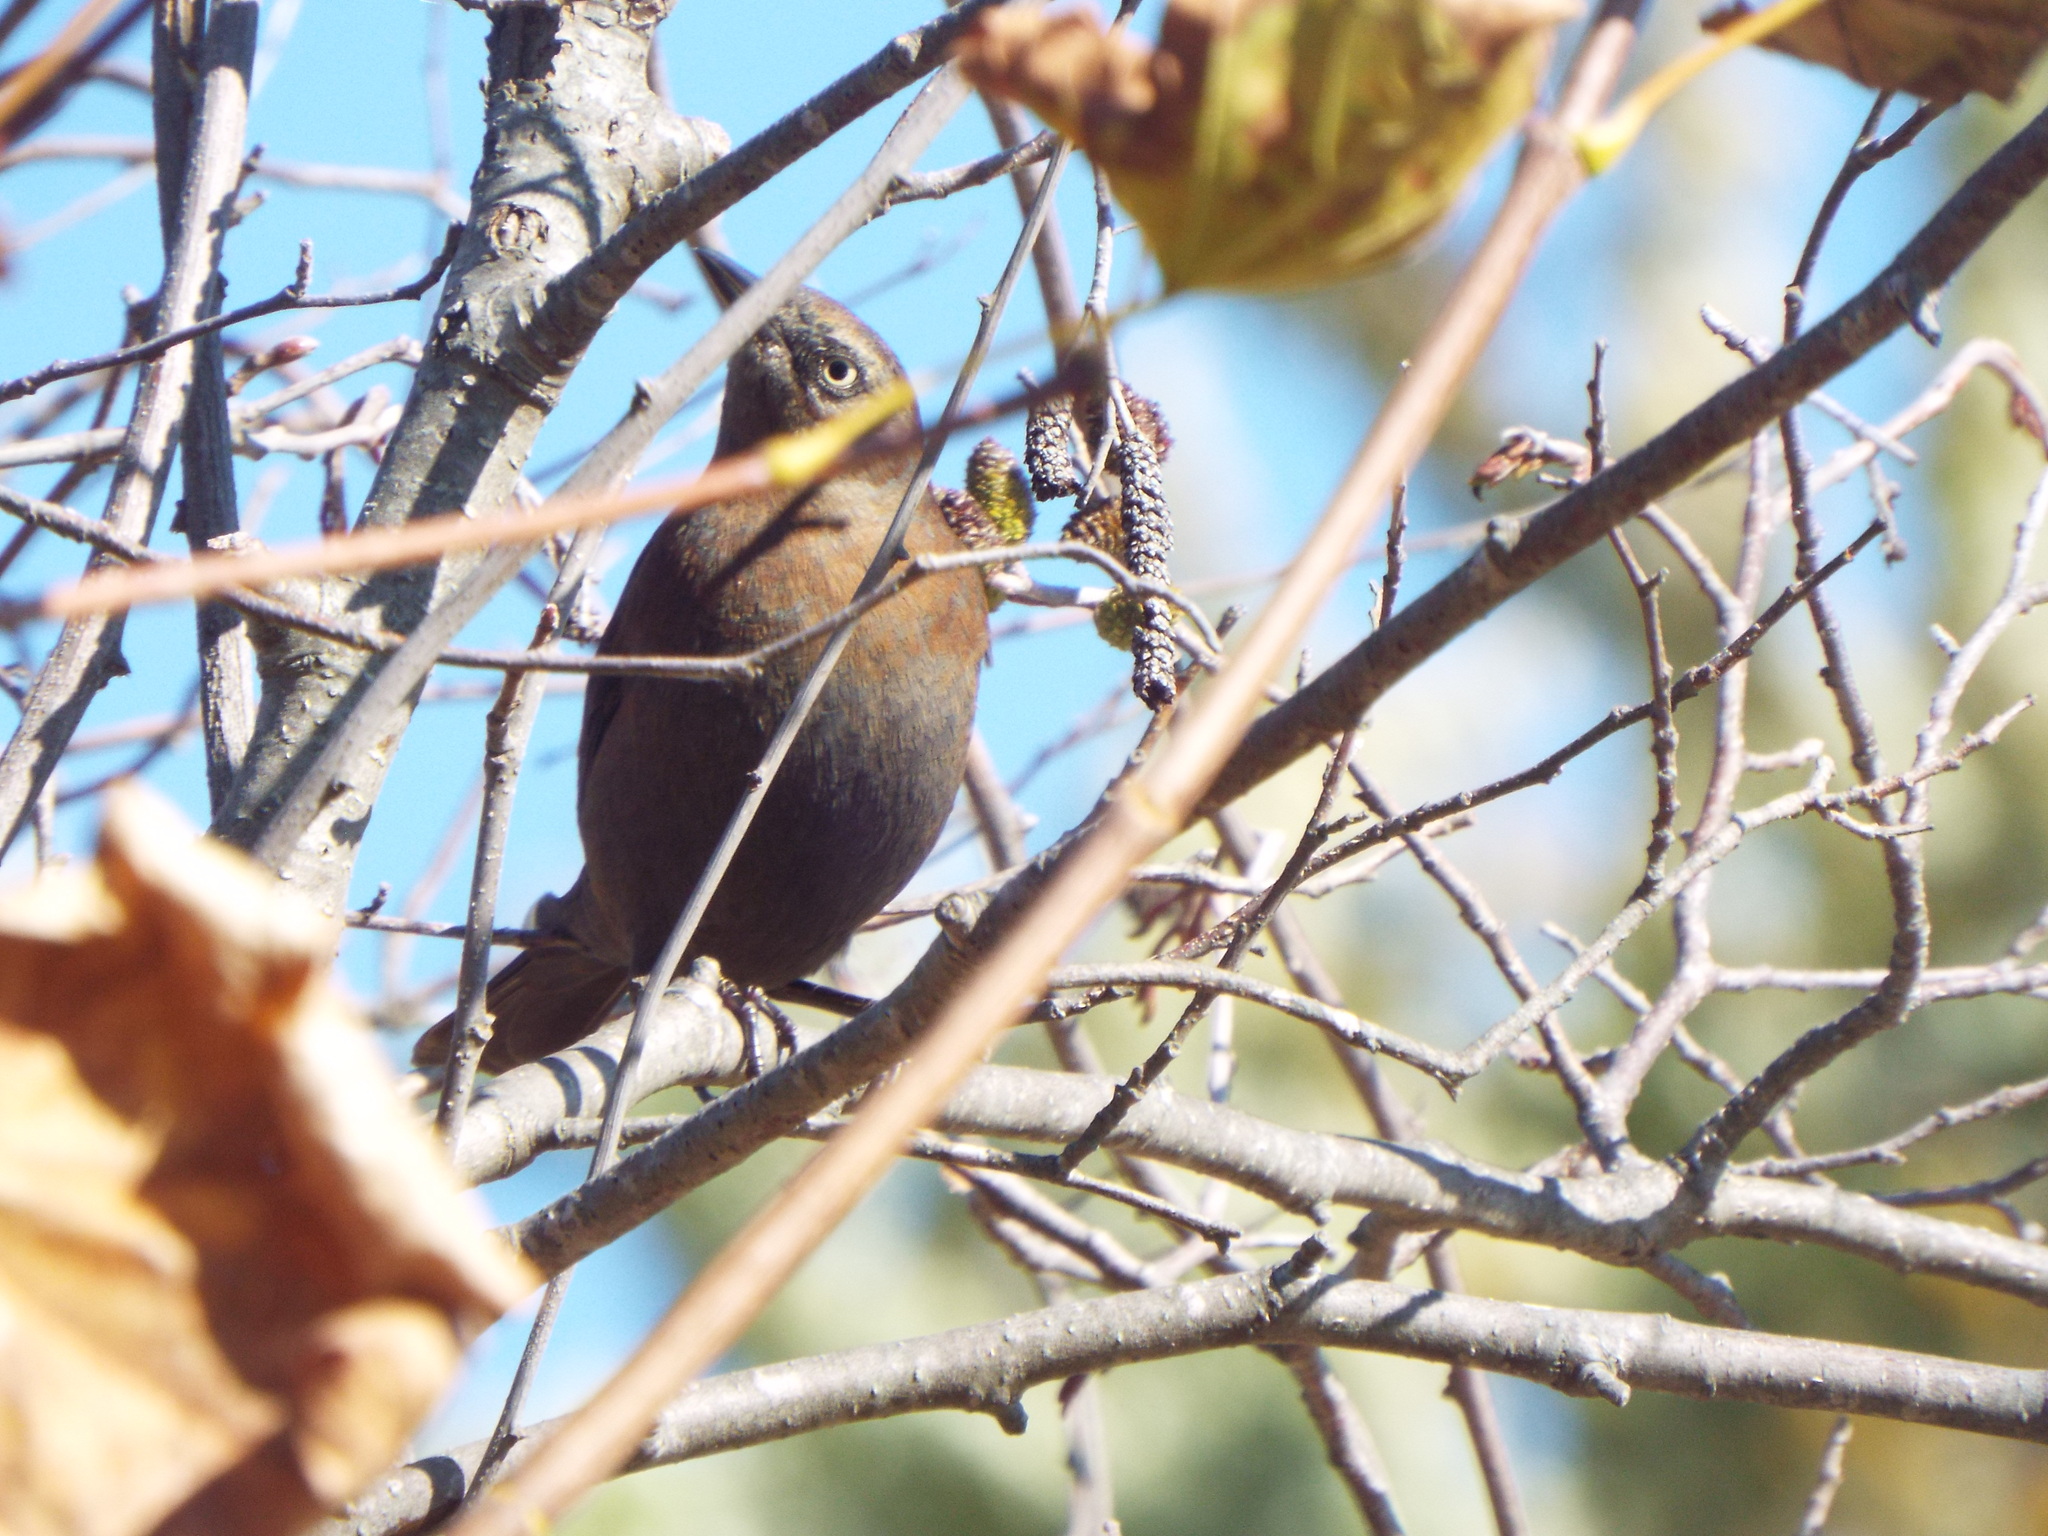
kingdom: Animalia
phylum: Chordata
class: Aves
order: Passeriformes
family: Icteridae
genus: Euphagus
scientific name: Euphagus carolinus
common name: Rusty blackbird
